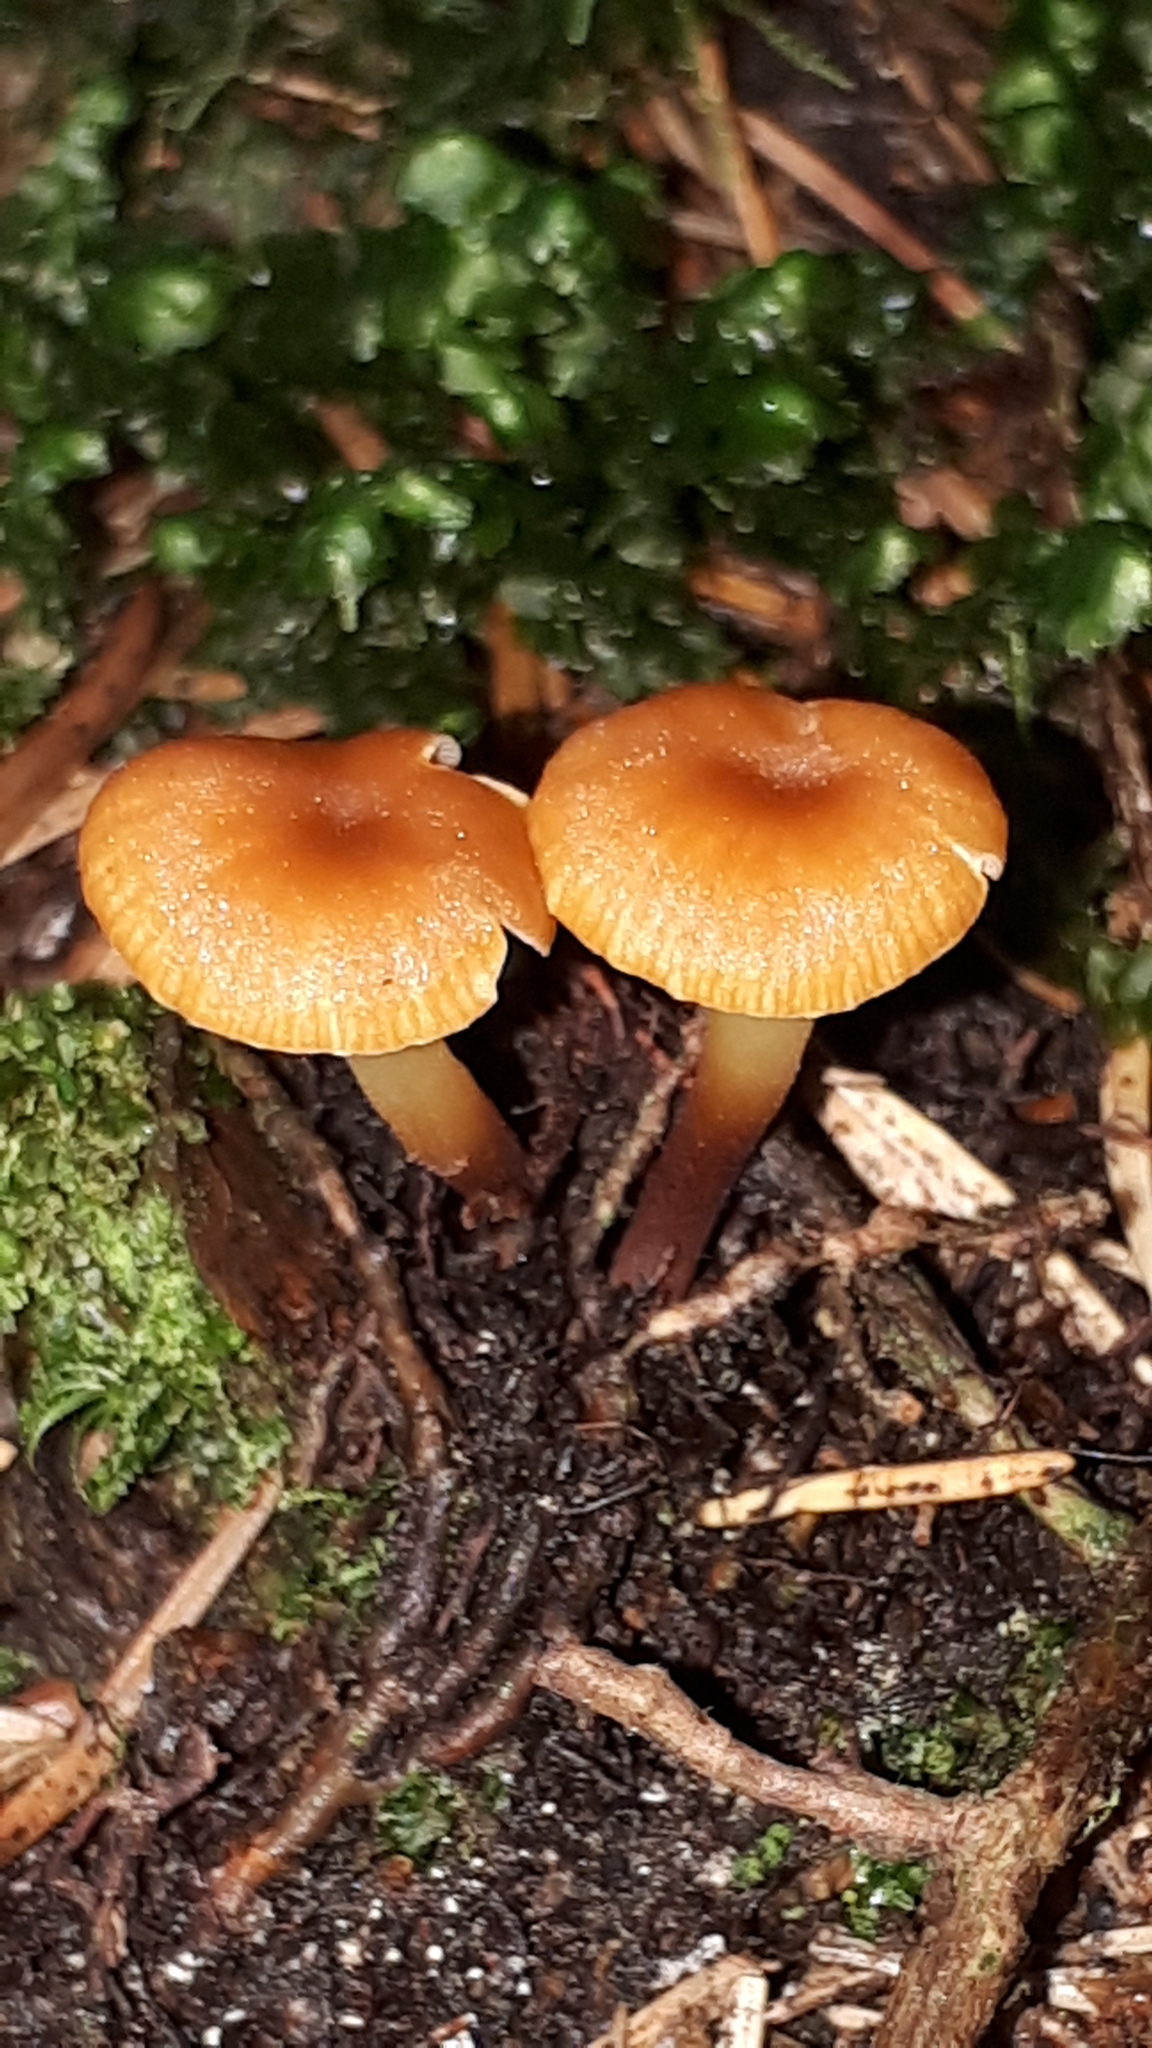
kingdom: Fungi
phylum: Basidiomycota
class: Agaricomycetes
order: Agaricales
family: Mycenaceae
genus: Xeromphalina
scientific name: Xeromphalina campanella
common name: Pinewood gingertail
